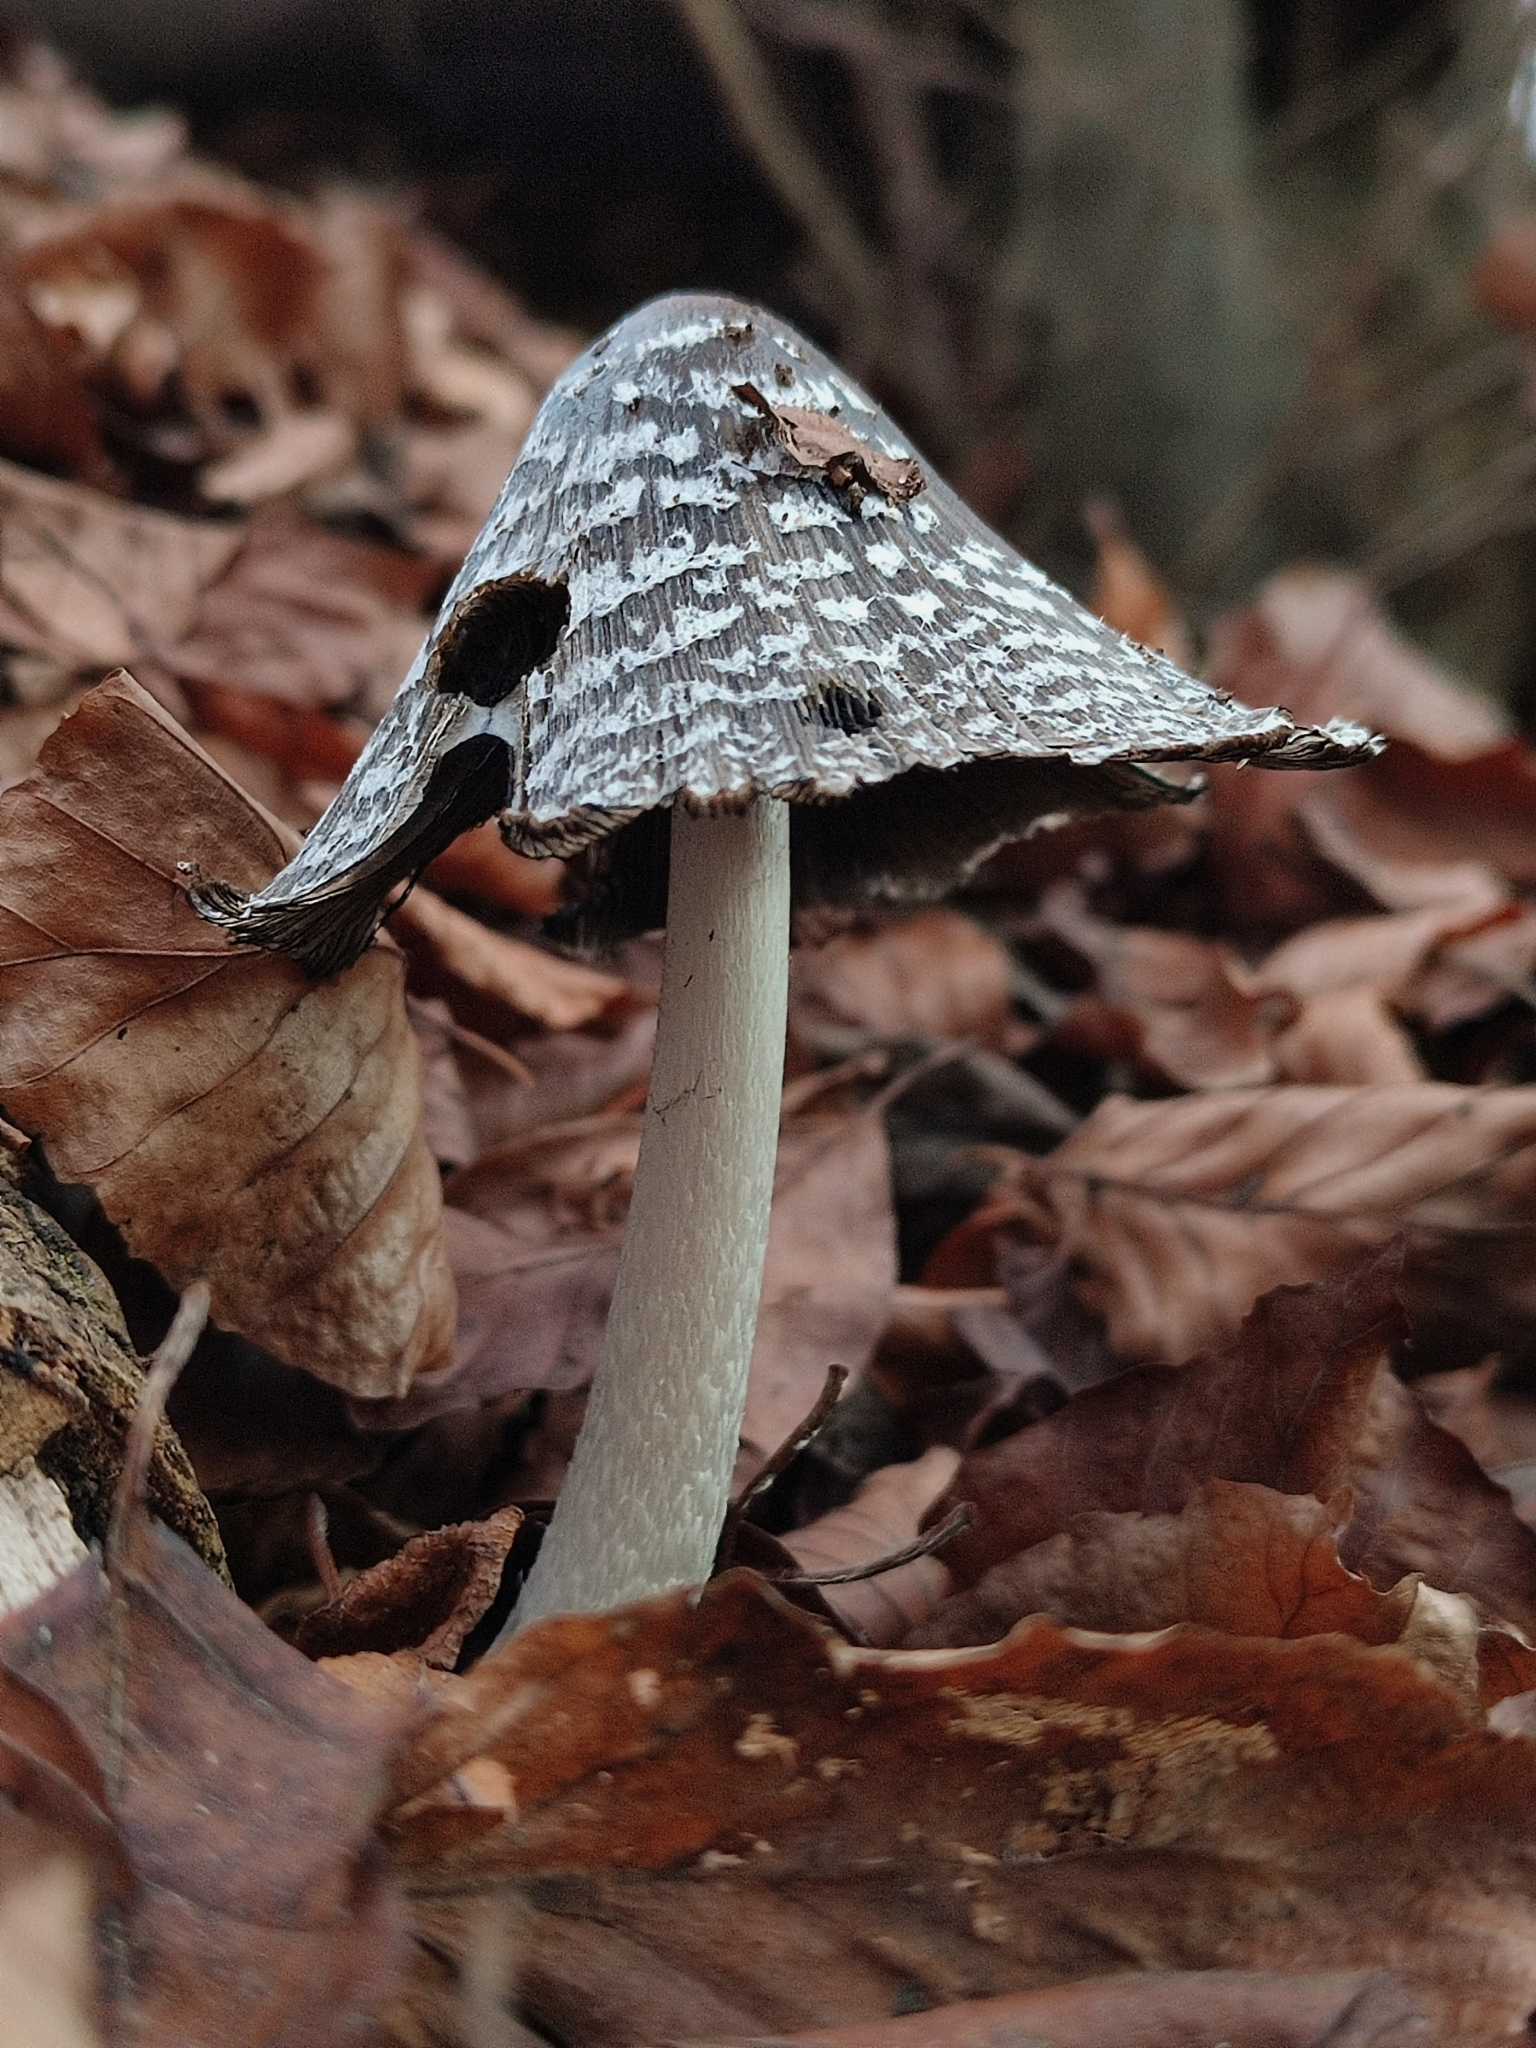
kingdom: Fungi
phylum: Basidiomycota
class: Agaricomycetes
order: Agaricales
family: Psathyrellaceae
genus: Coprinopsis
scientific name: Coprinopsis picacea
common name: Magpie inkcap
